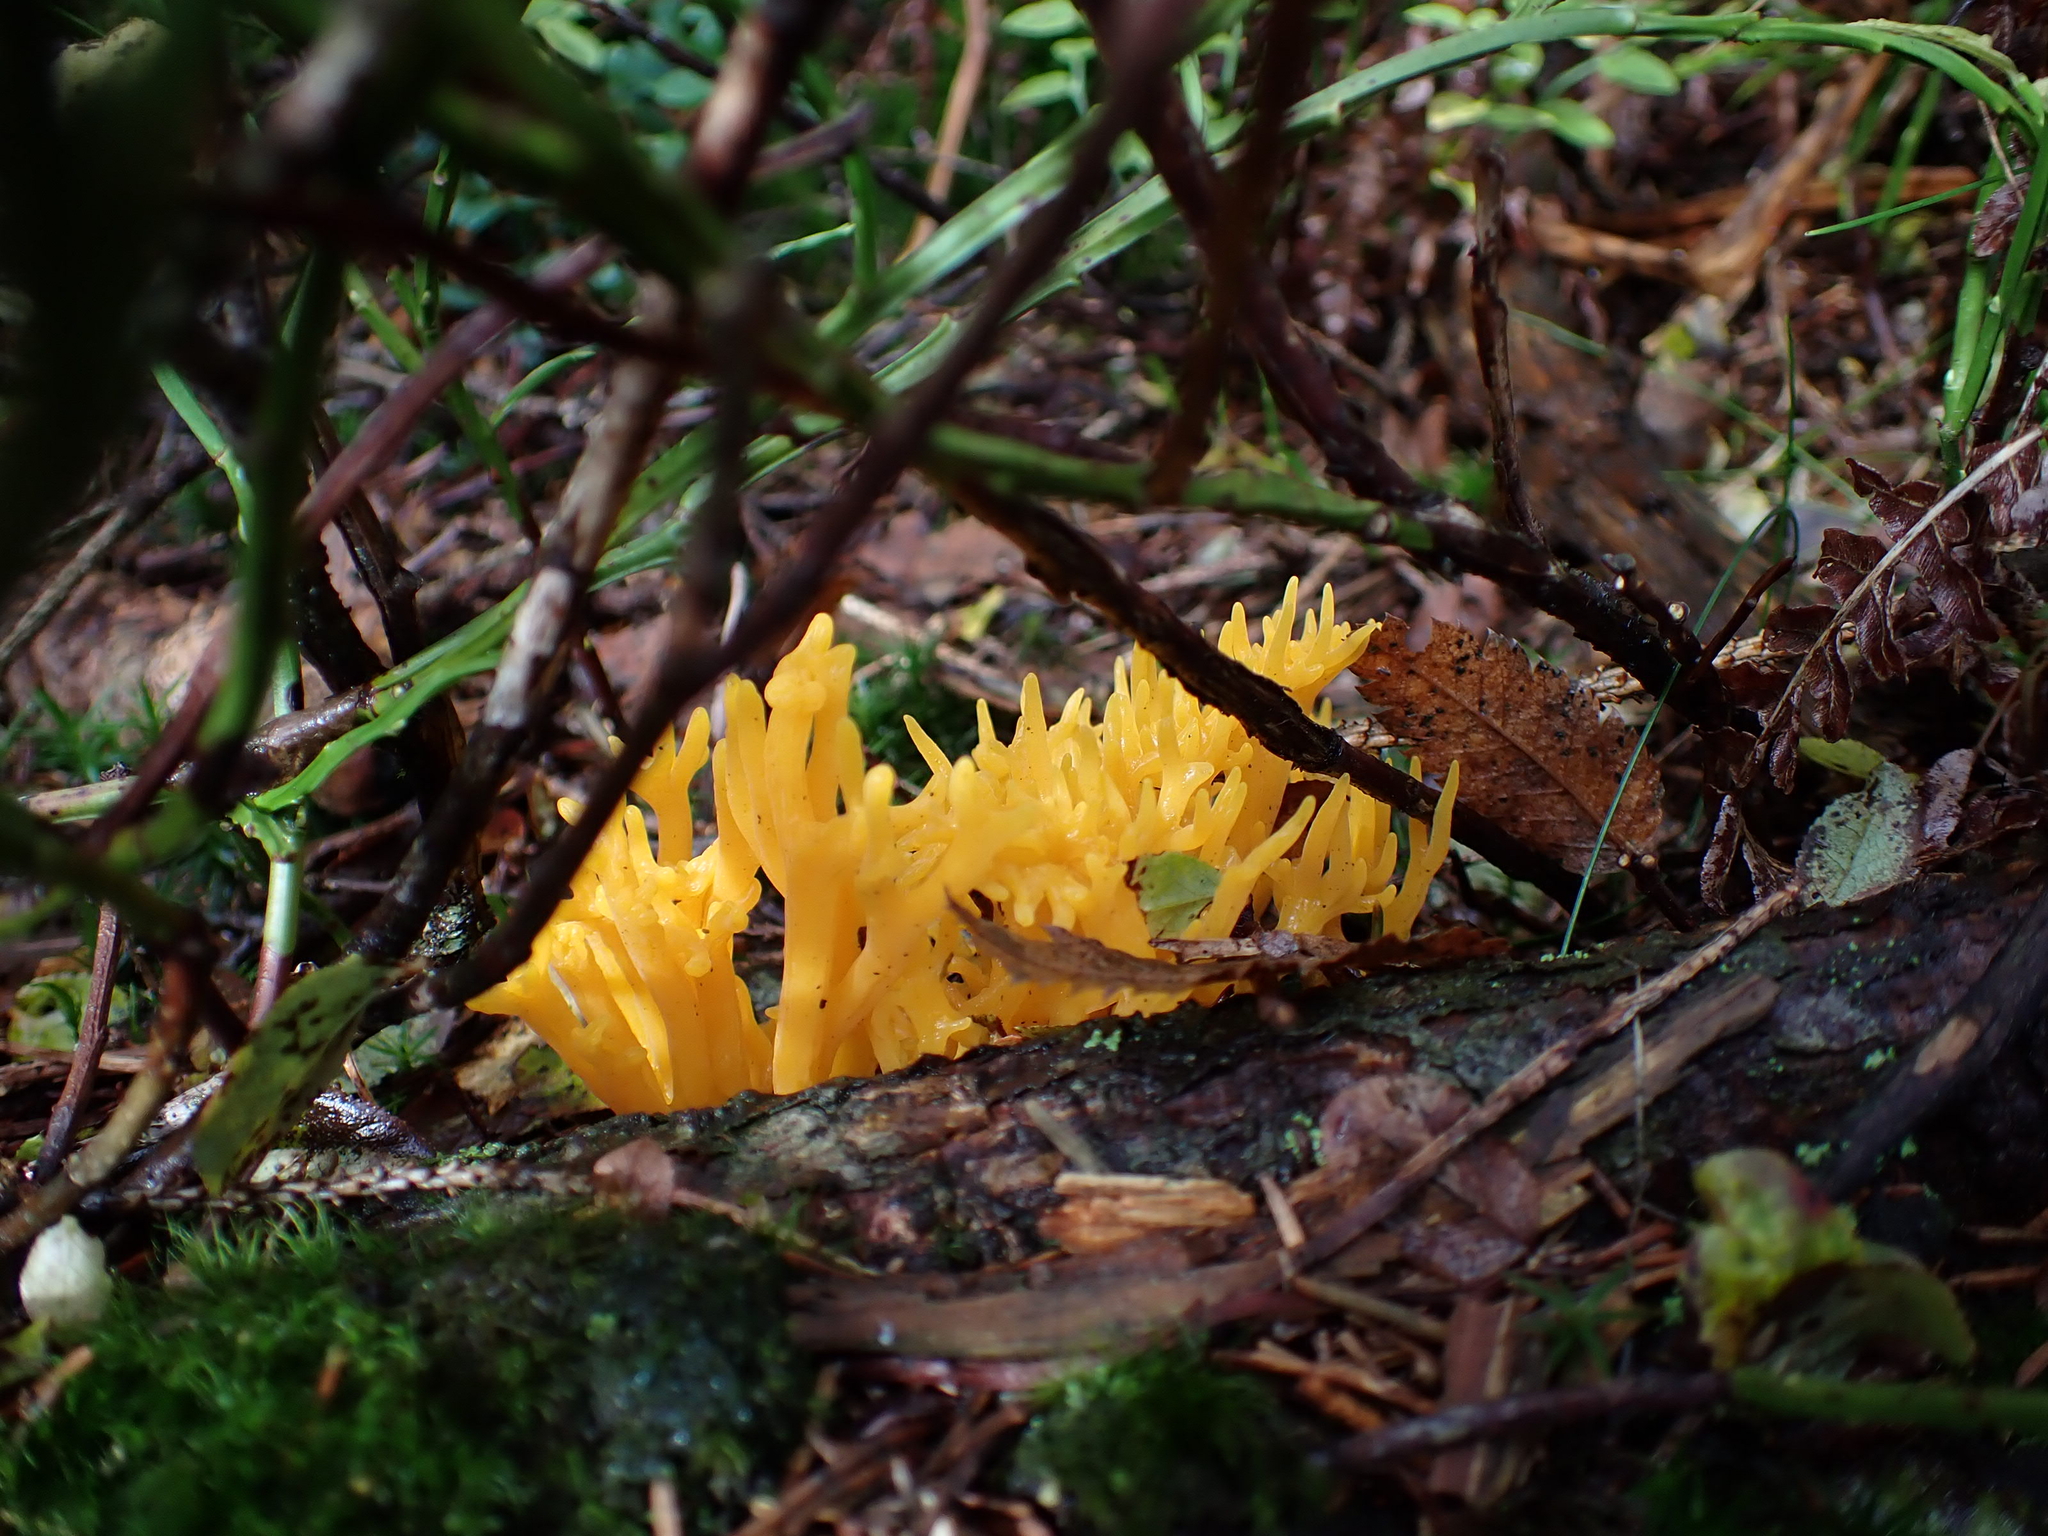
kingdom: Fungi
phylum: Basidiomycota
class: Dacrymycetes
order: Dacrymycetales
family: Dacrymycetaceae
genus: Calocera
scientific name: Calocera viscosa
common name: Yellow stagshorn
